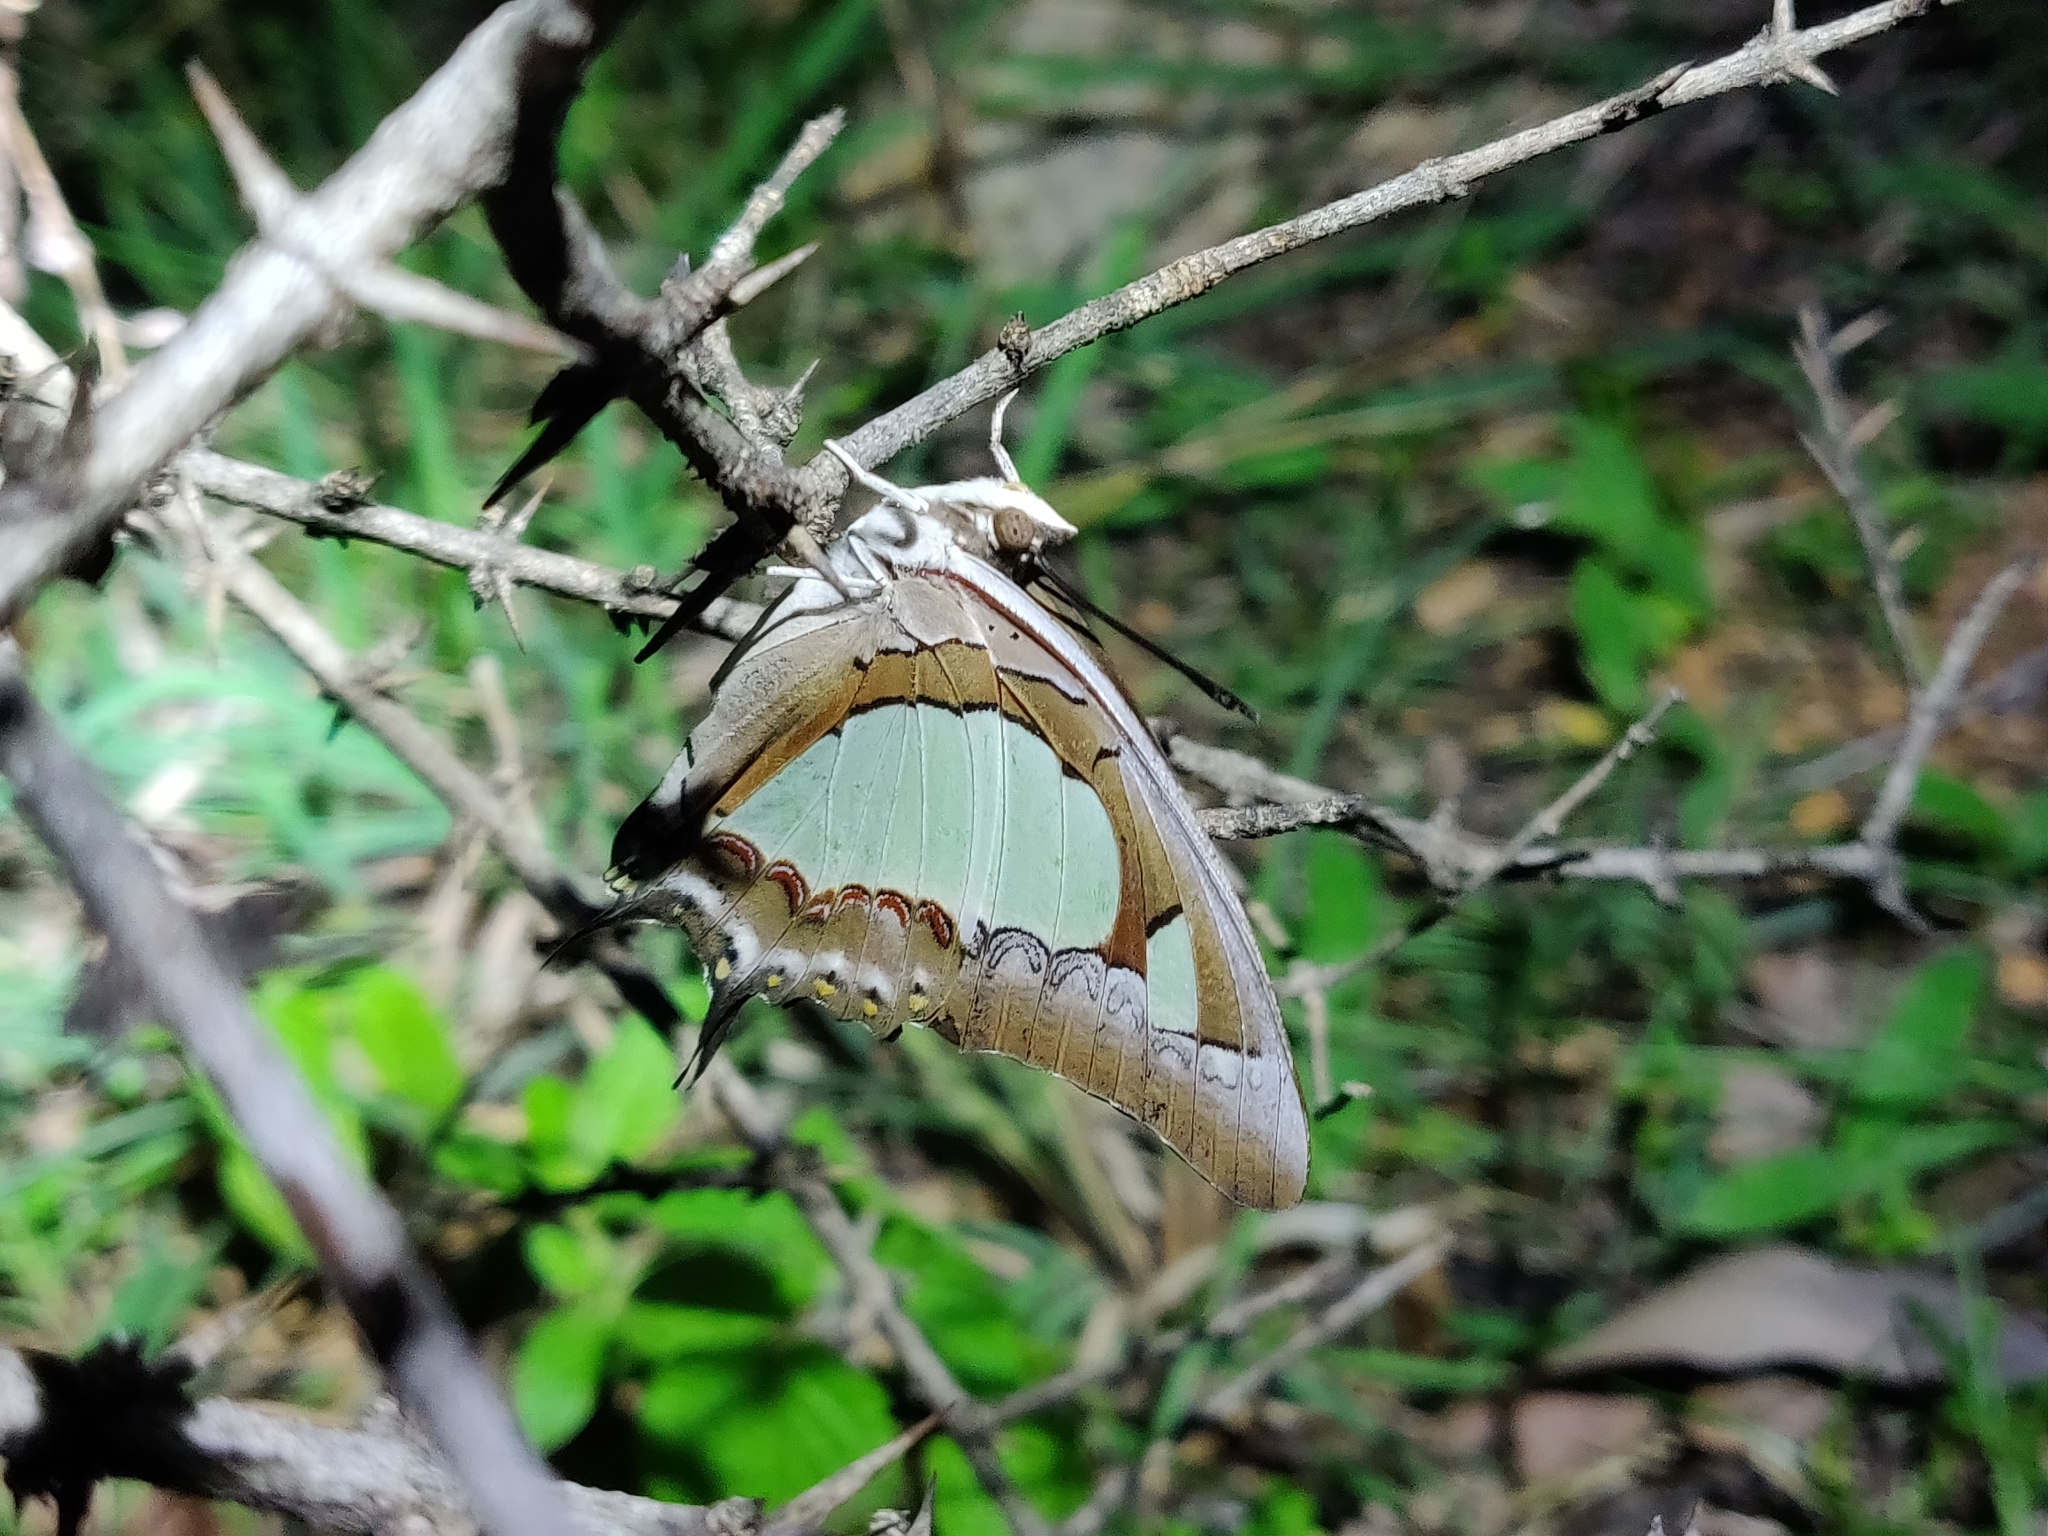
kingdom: Animalia
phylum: Arthropoda
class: Insecta
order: Lepidoptera
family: Nymphalidae
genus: Polyura
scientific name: Polyura agrarius
